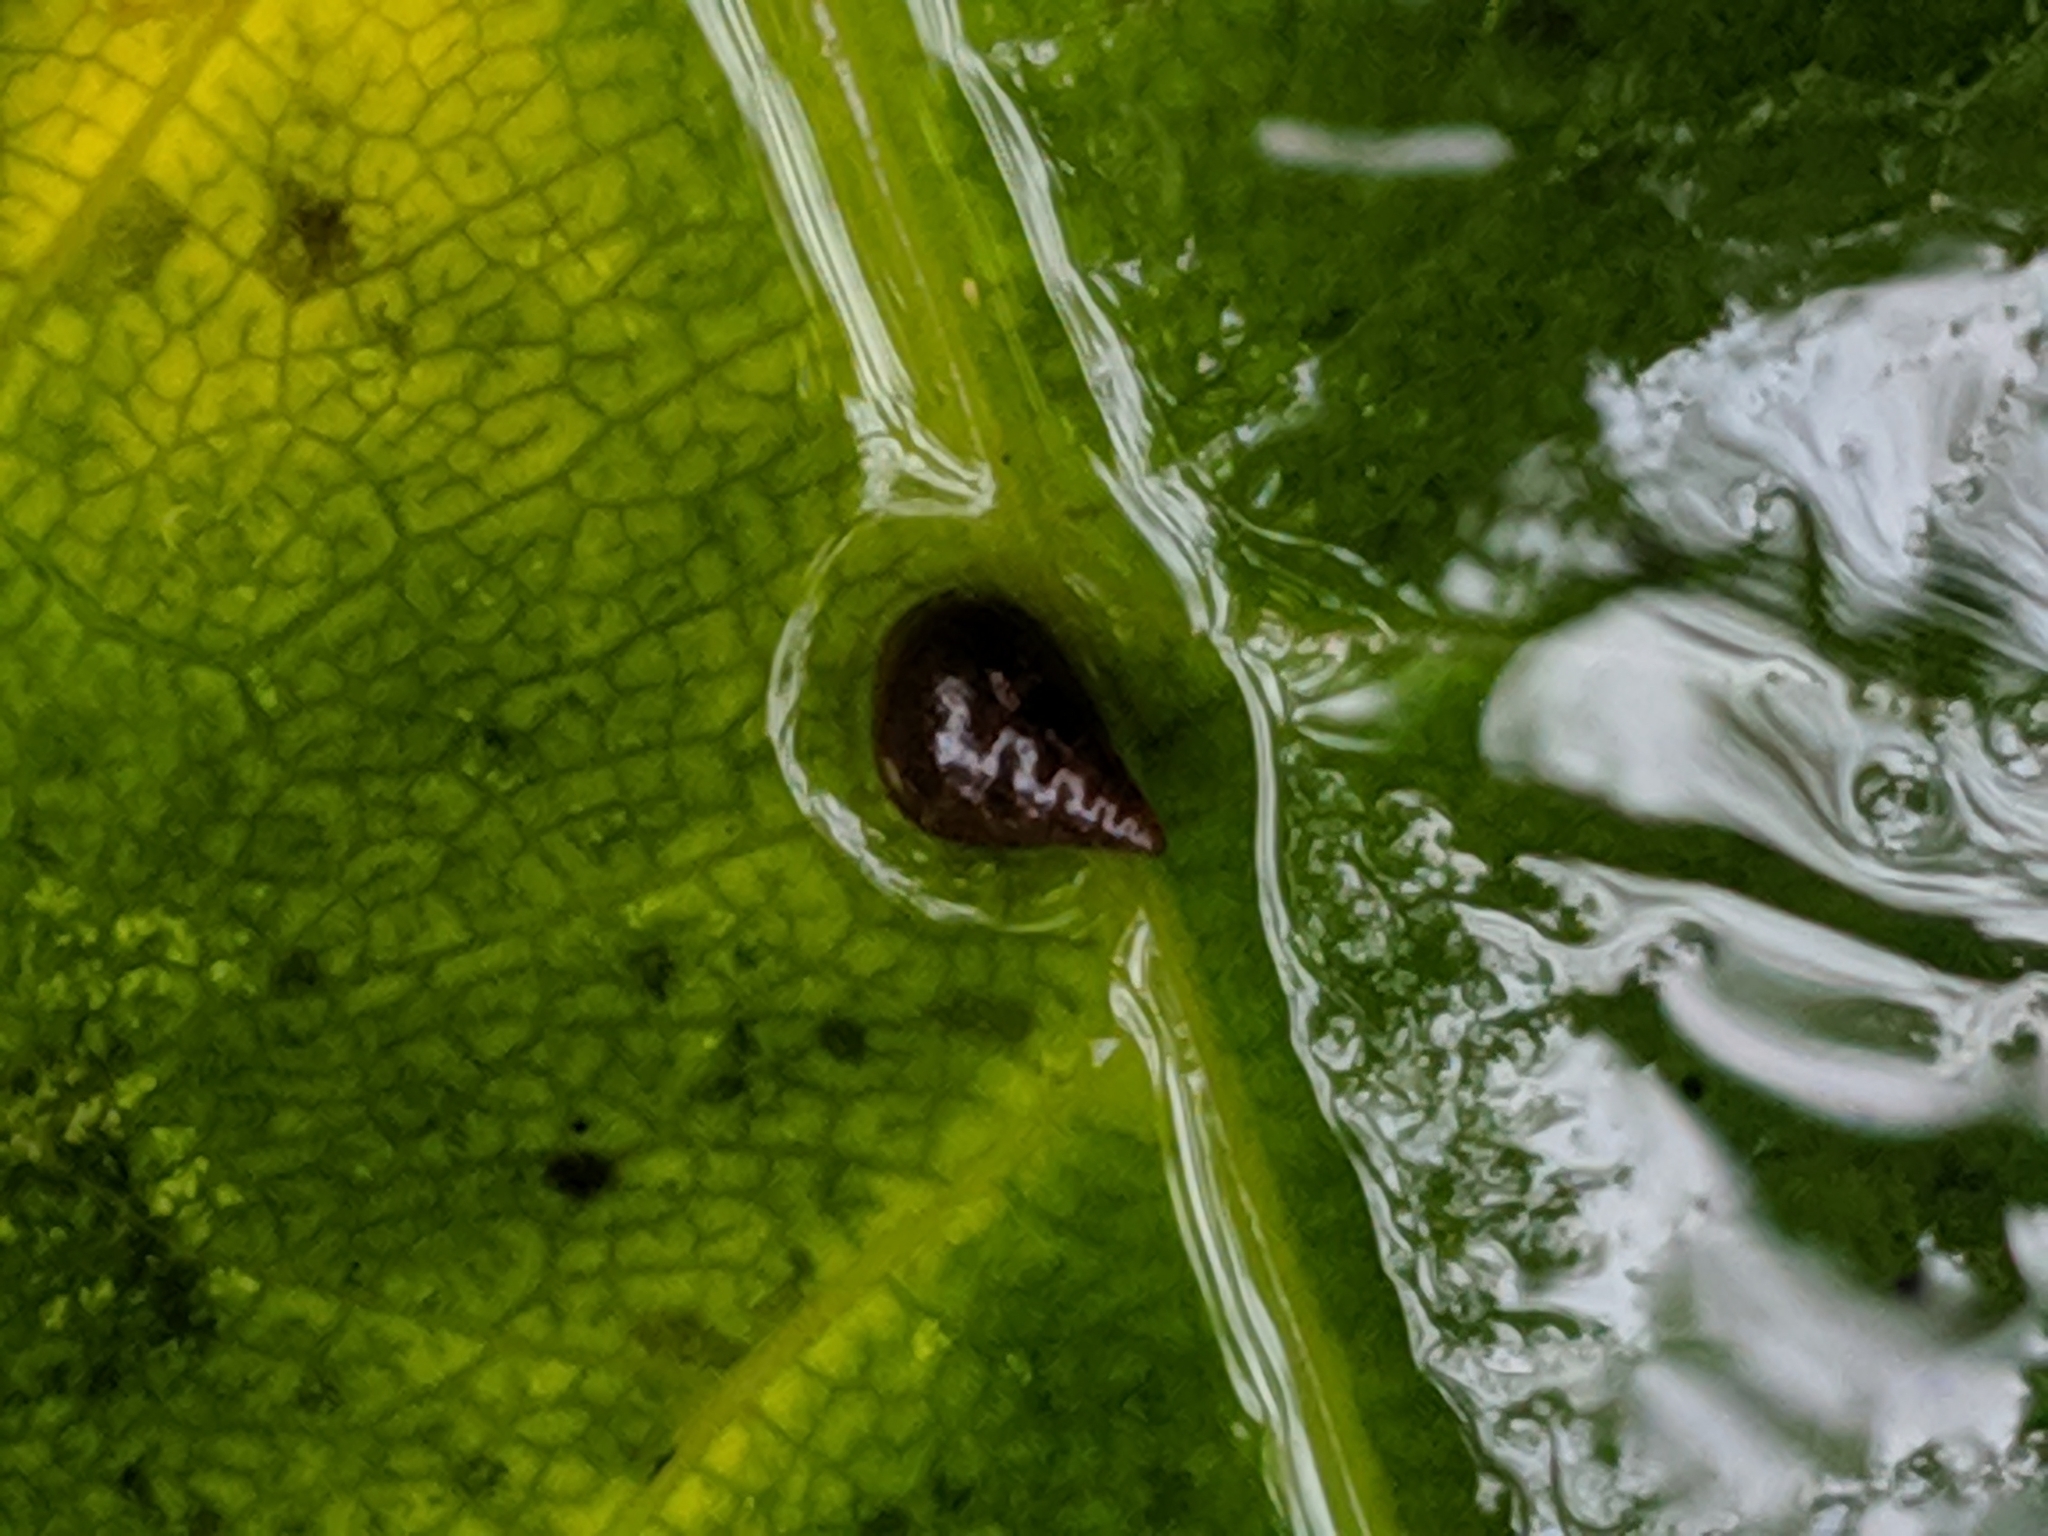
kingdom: Animalia
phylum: Mollusca
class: Gastropoda
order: Littorinimorpha
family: Tateidae
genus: Potamopyrgus
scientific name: Potamopyrgus antipodarum
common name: Jenkins' spire snail
